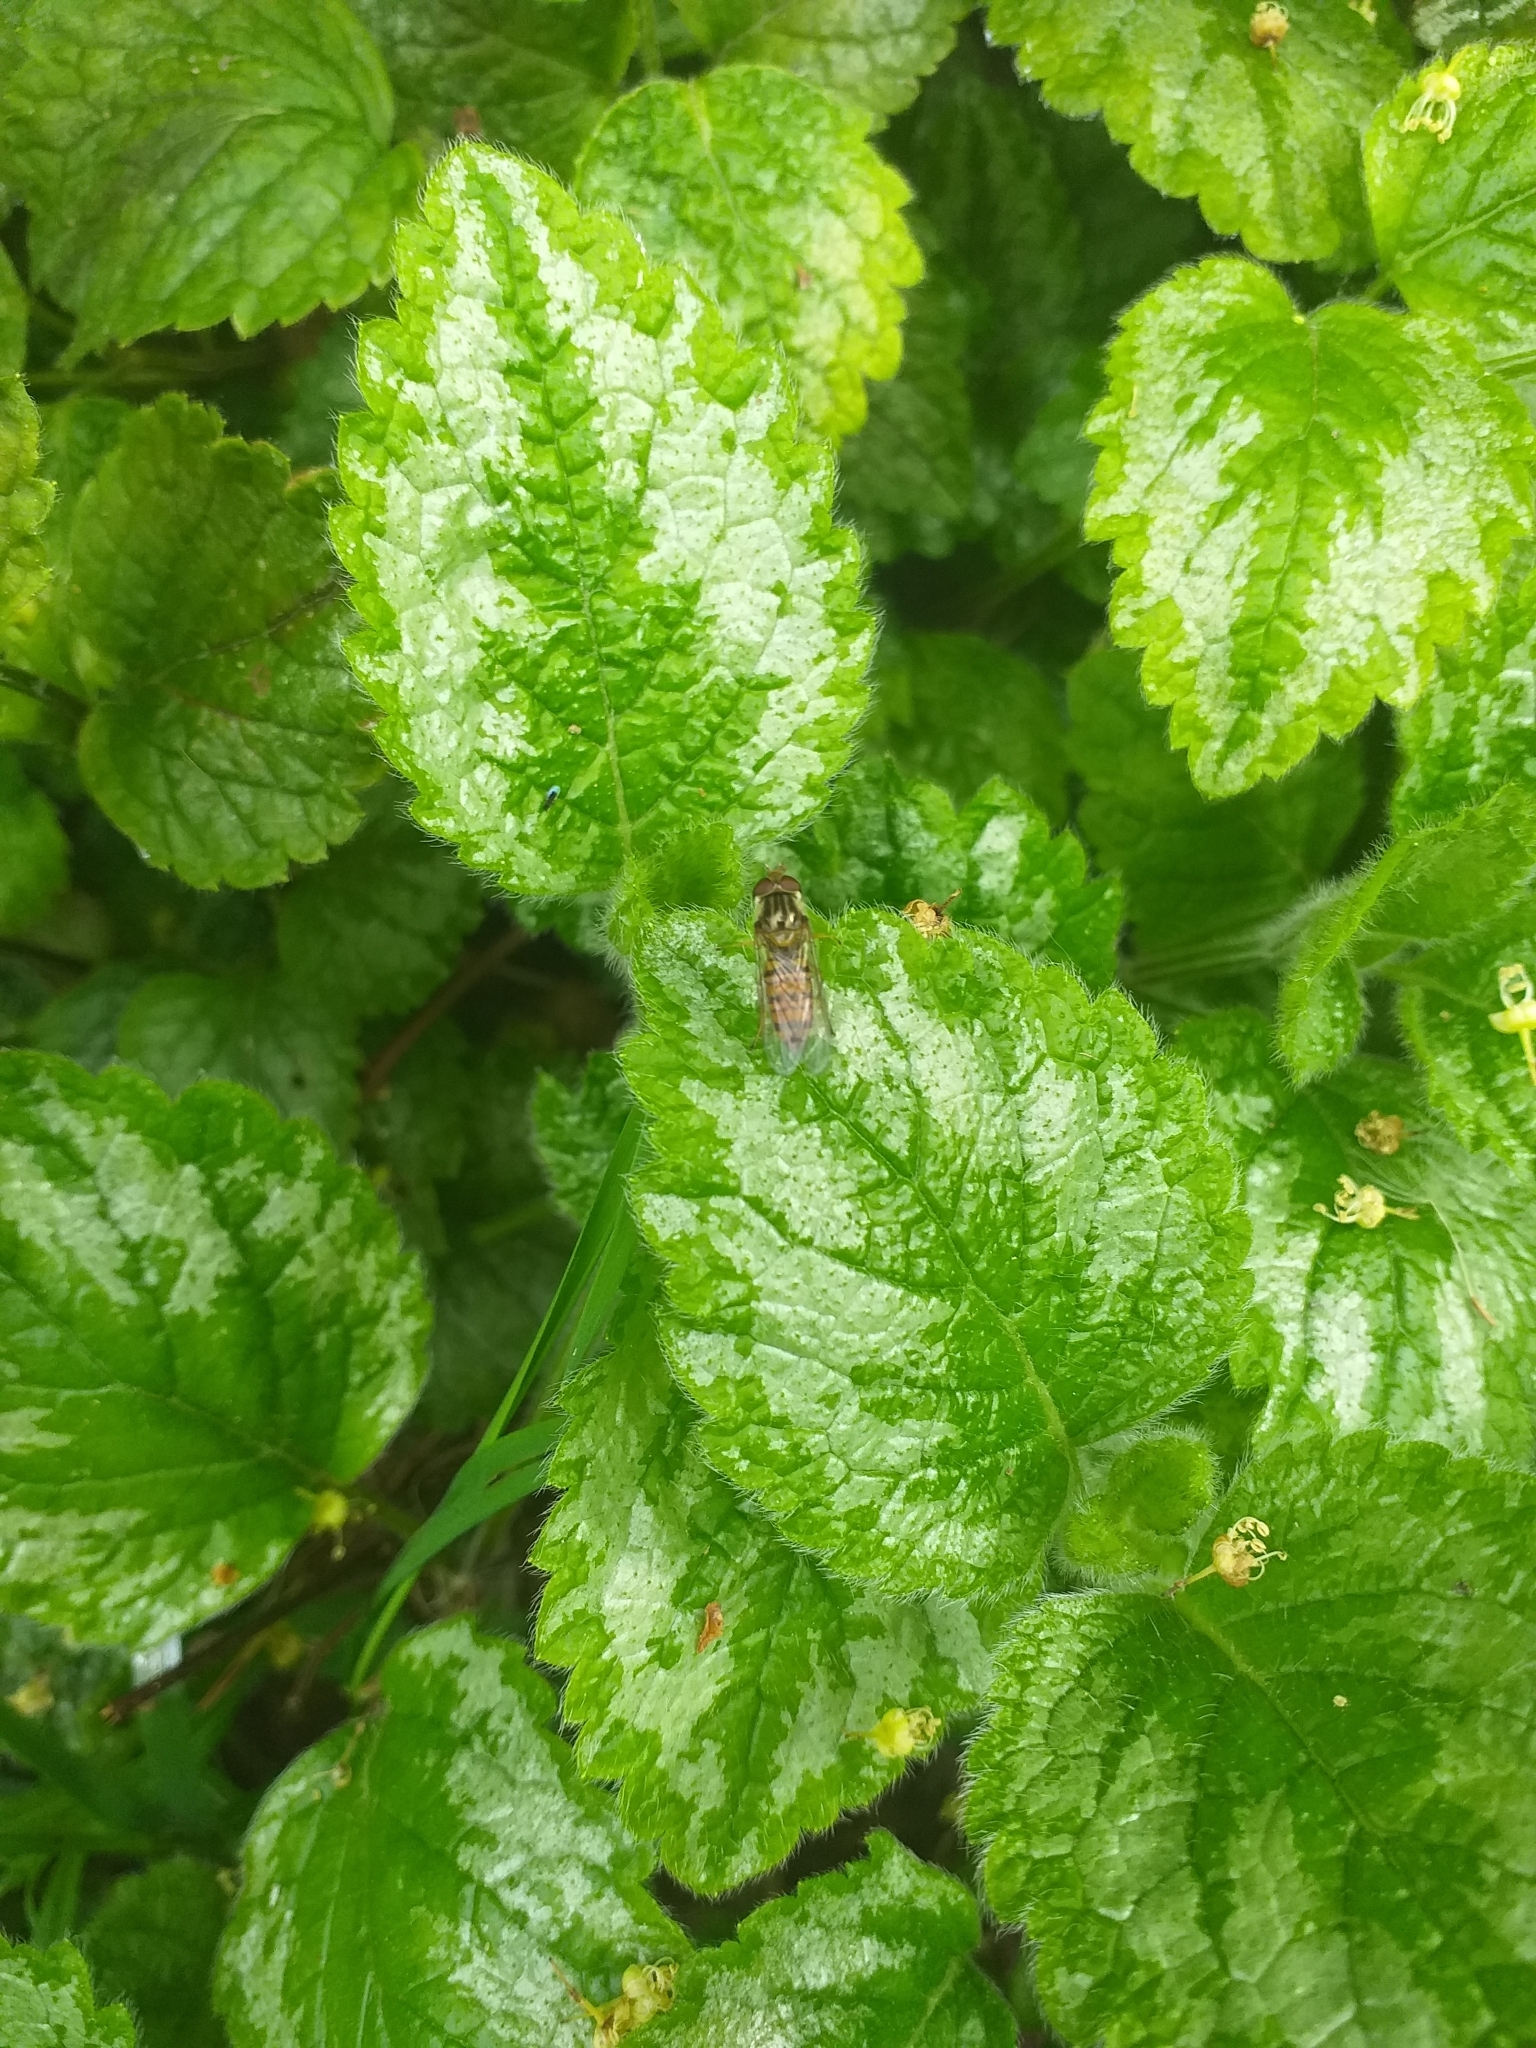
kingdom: Animalia
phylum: Arthropoda
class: Insecta
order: Diptera
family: Syrphidae
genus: Episyrphus
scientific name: Episyrphus balteatus
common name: Marmalade hoverfly
